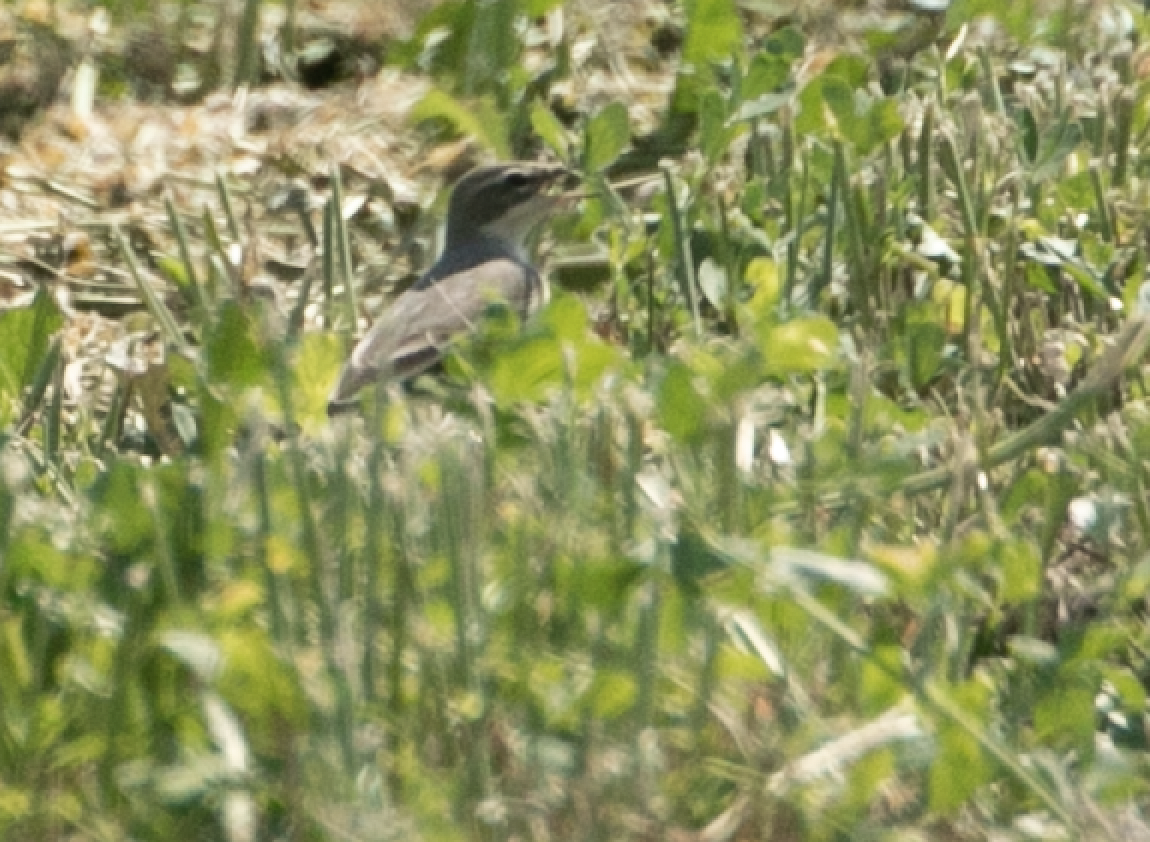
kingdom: Animalia
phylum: Chordata
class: Aves
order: Passeriformes
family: Motacillidae
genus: Motacilla
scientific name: Motacilla flava
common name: Western yellow wagtail
